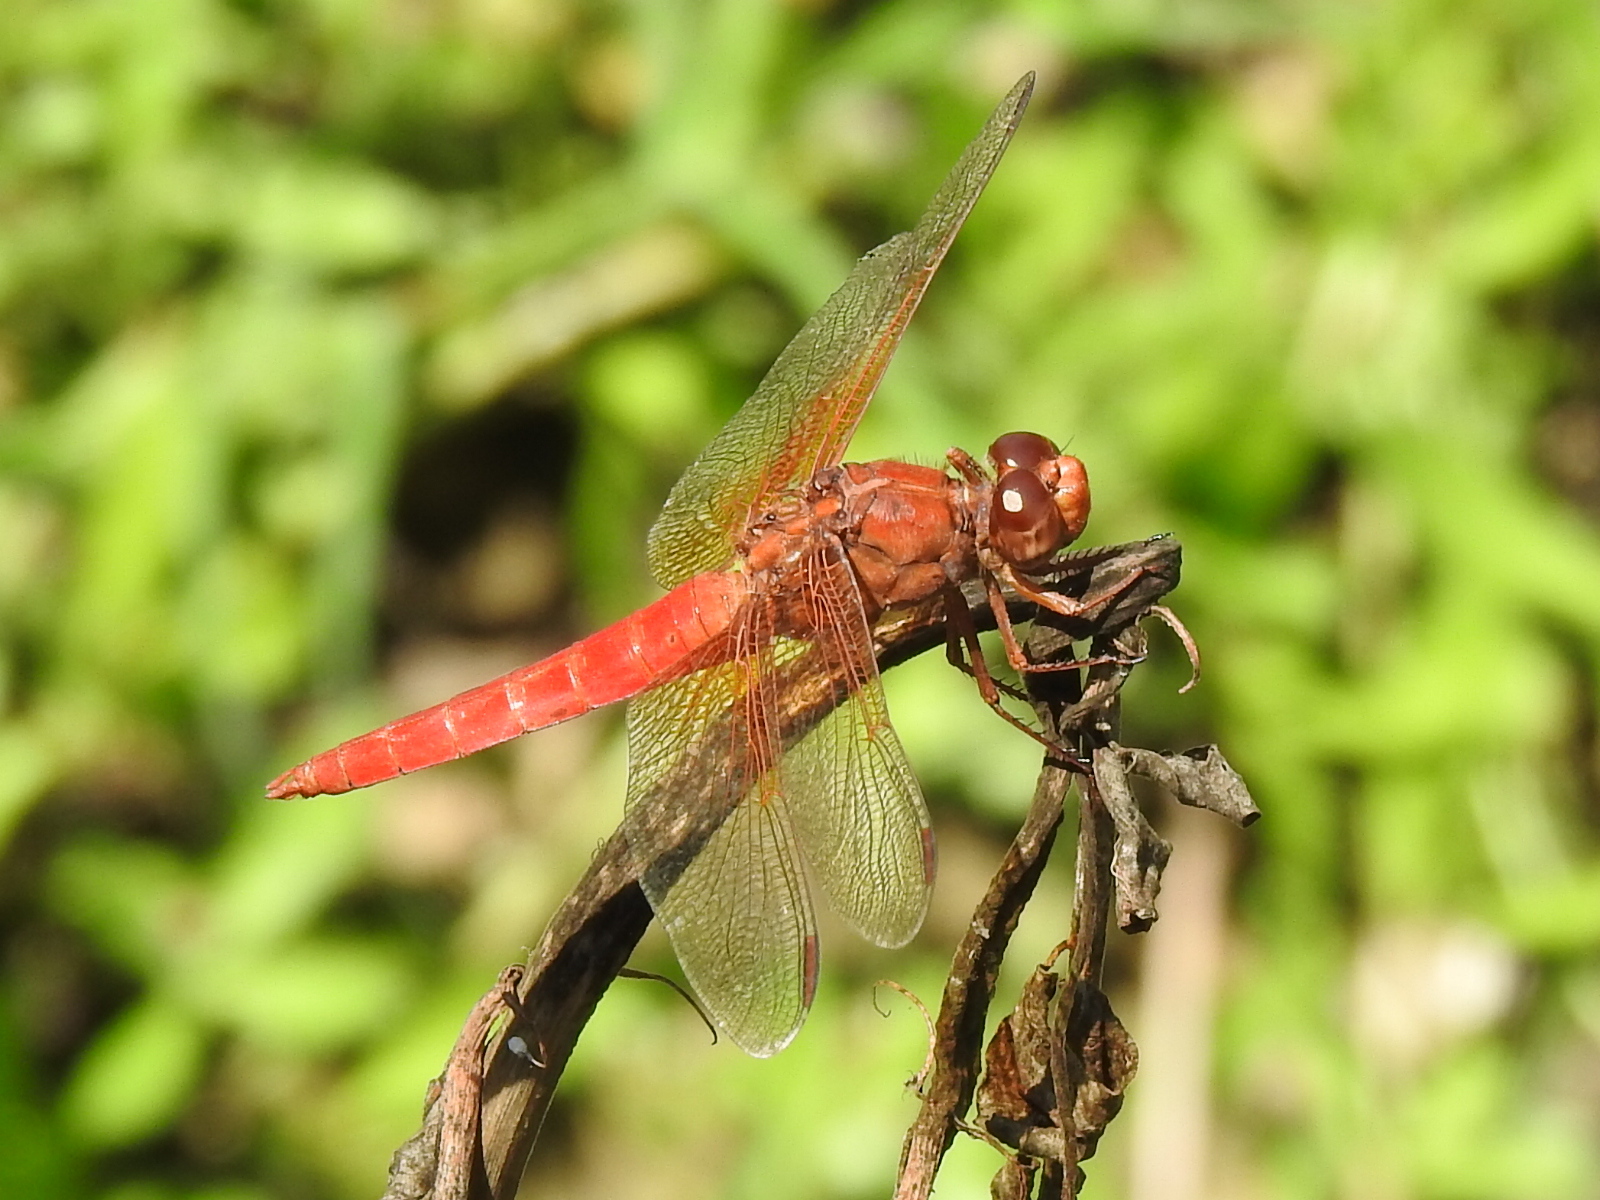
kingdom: Animalia
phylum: Arthropoda
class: Insecta
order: Odonata
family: Libellulidae
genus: Libellula
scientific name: Libellula croceipennis
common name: Neon skimmer
